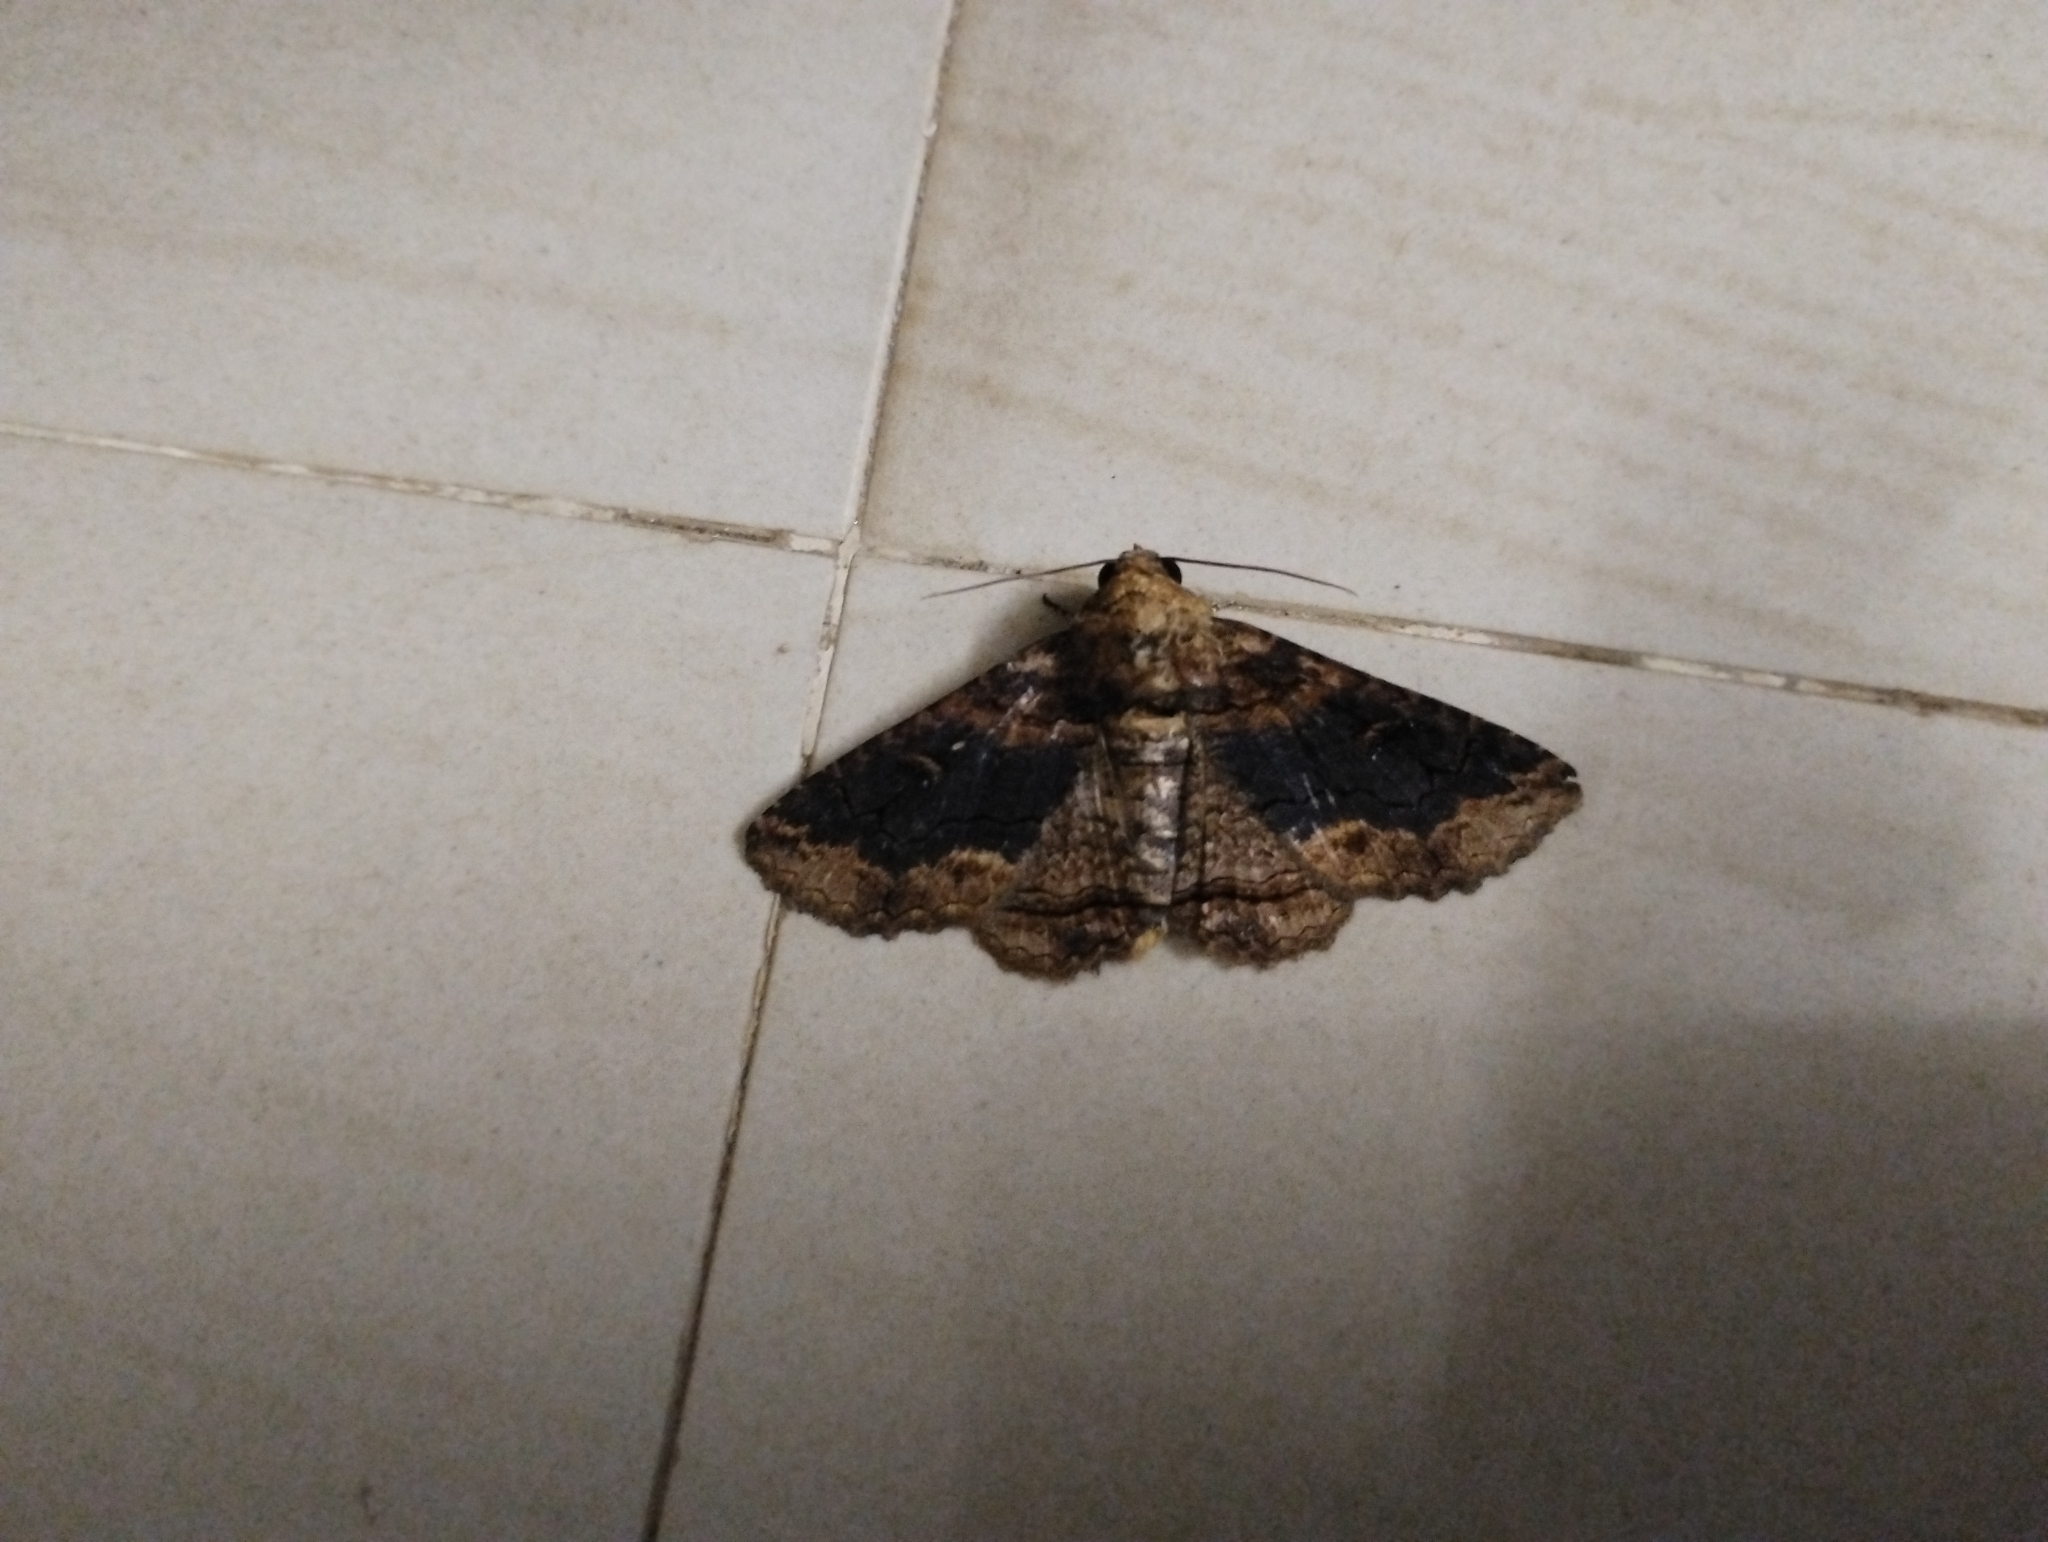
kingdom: Animalia
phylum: Arthropoda
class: Insecta
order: Lepidoptera
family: Erebidae
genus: Pericyma
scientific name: Pericyma cruegeri
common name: Poinciana looper
